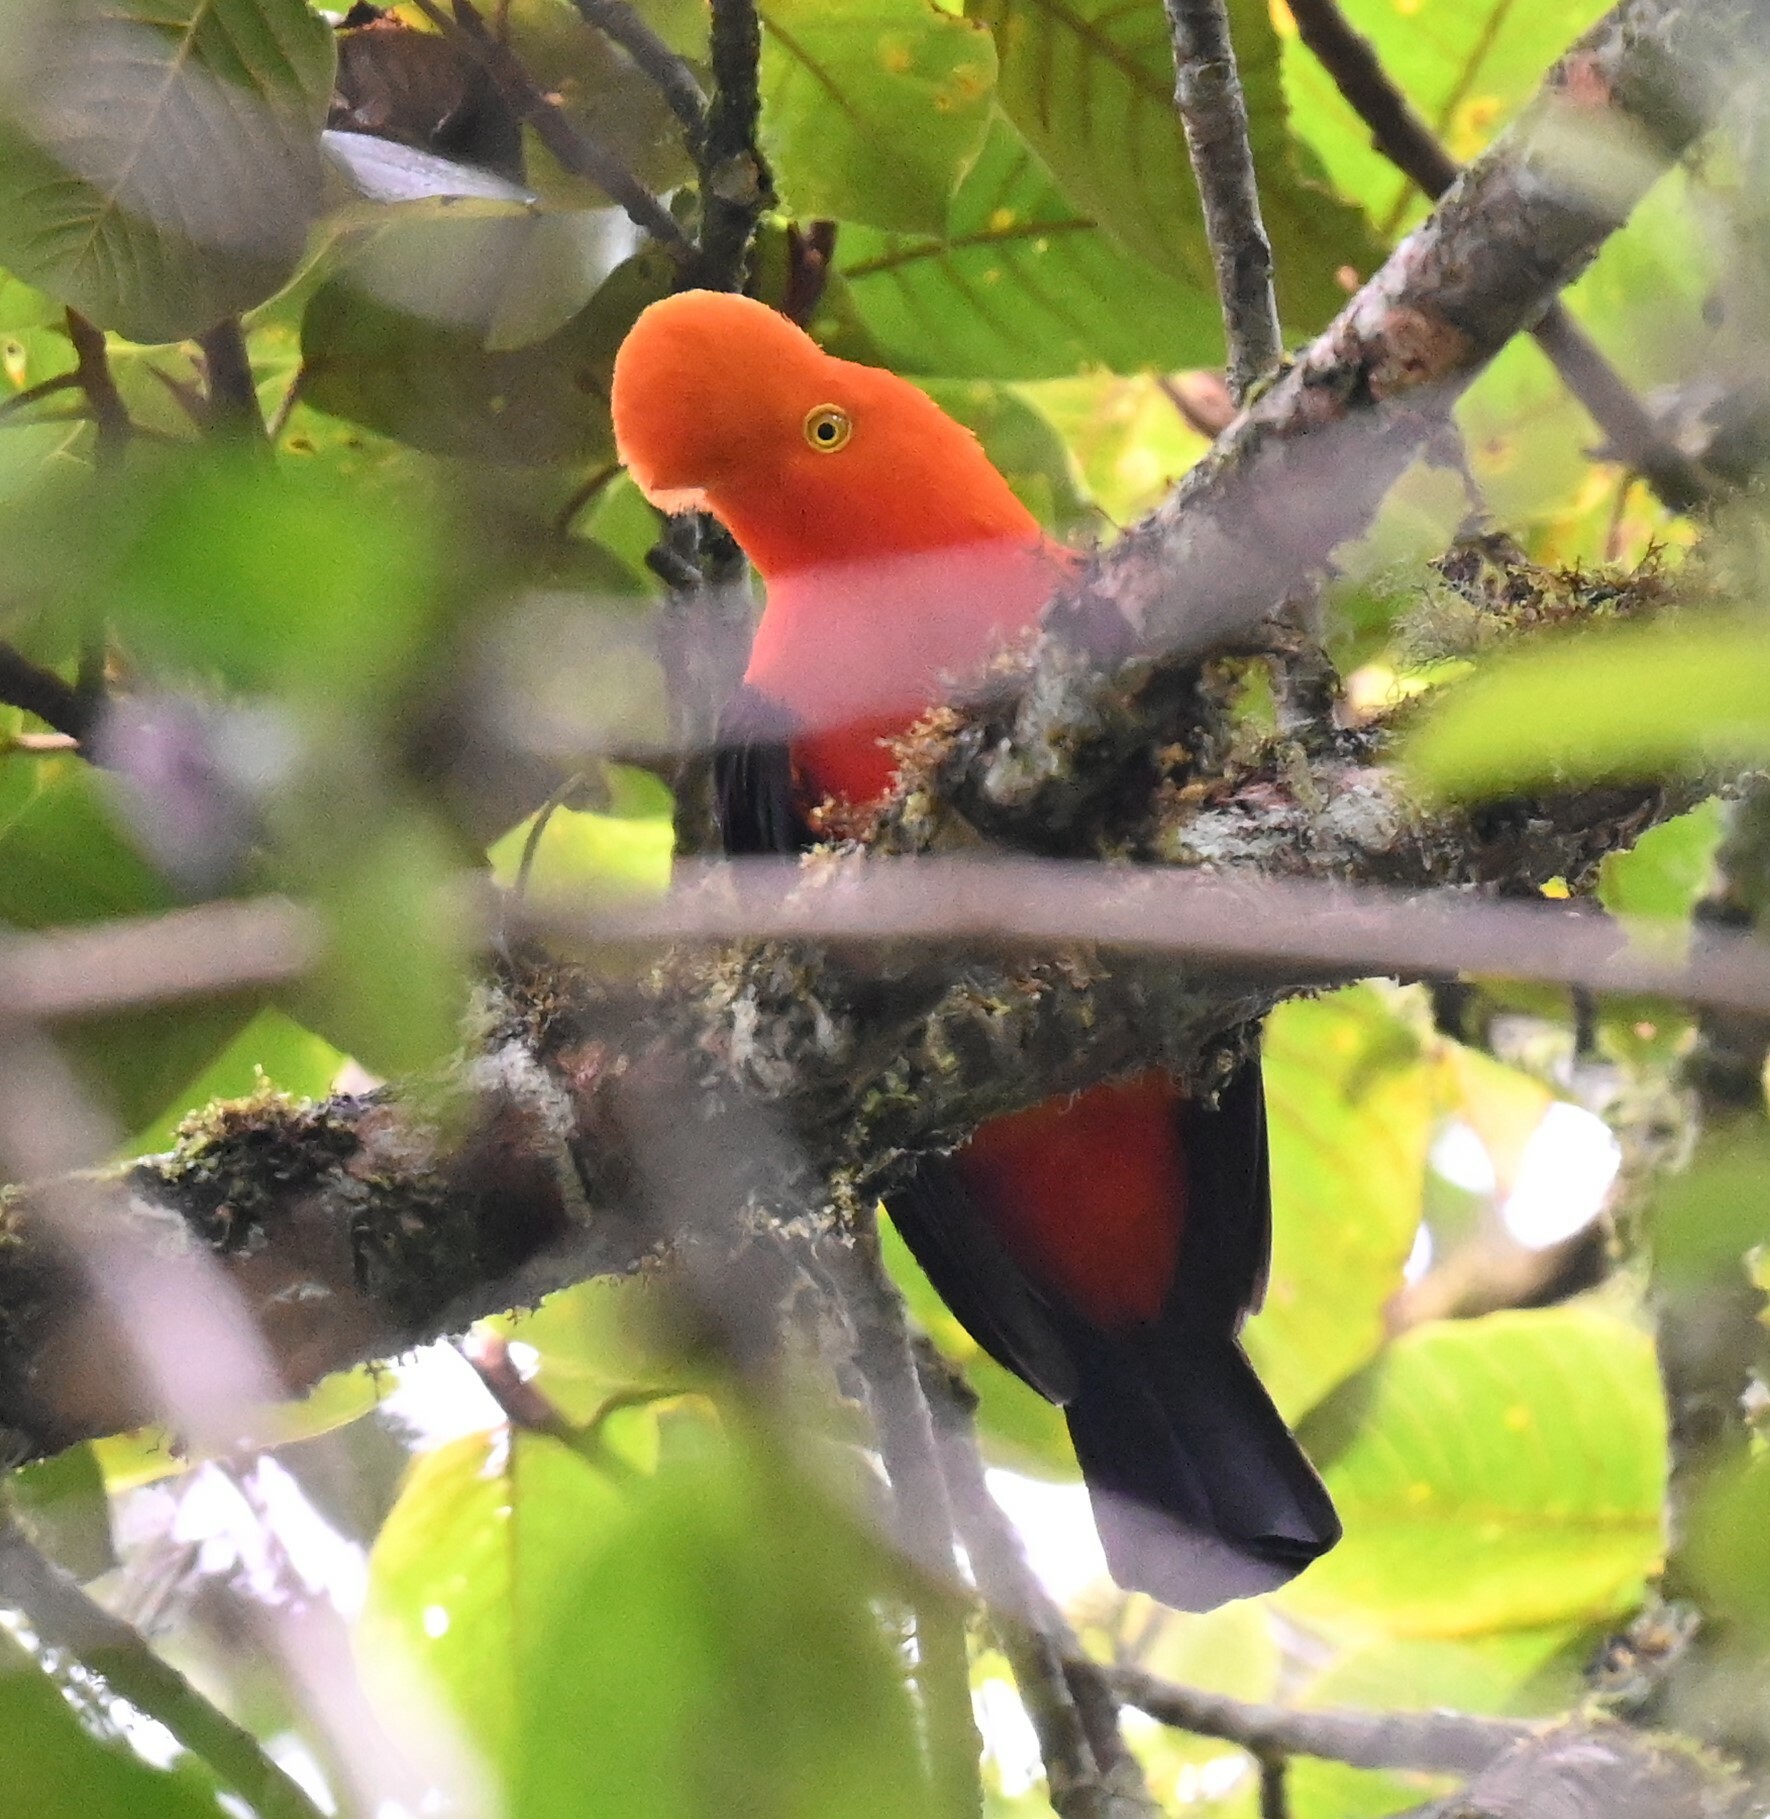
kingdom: Animalia
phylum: Chordata
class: Aves
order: Passeriformes
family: Cotingidae
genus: Rupicola
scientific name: Rupicola peruvianus
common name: Andean cock-of-the-rock
